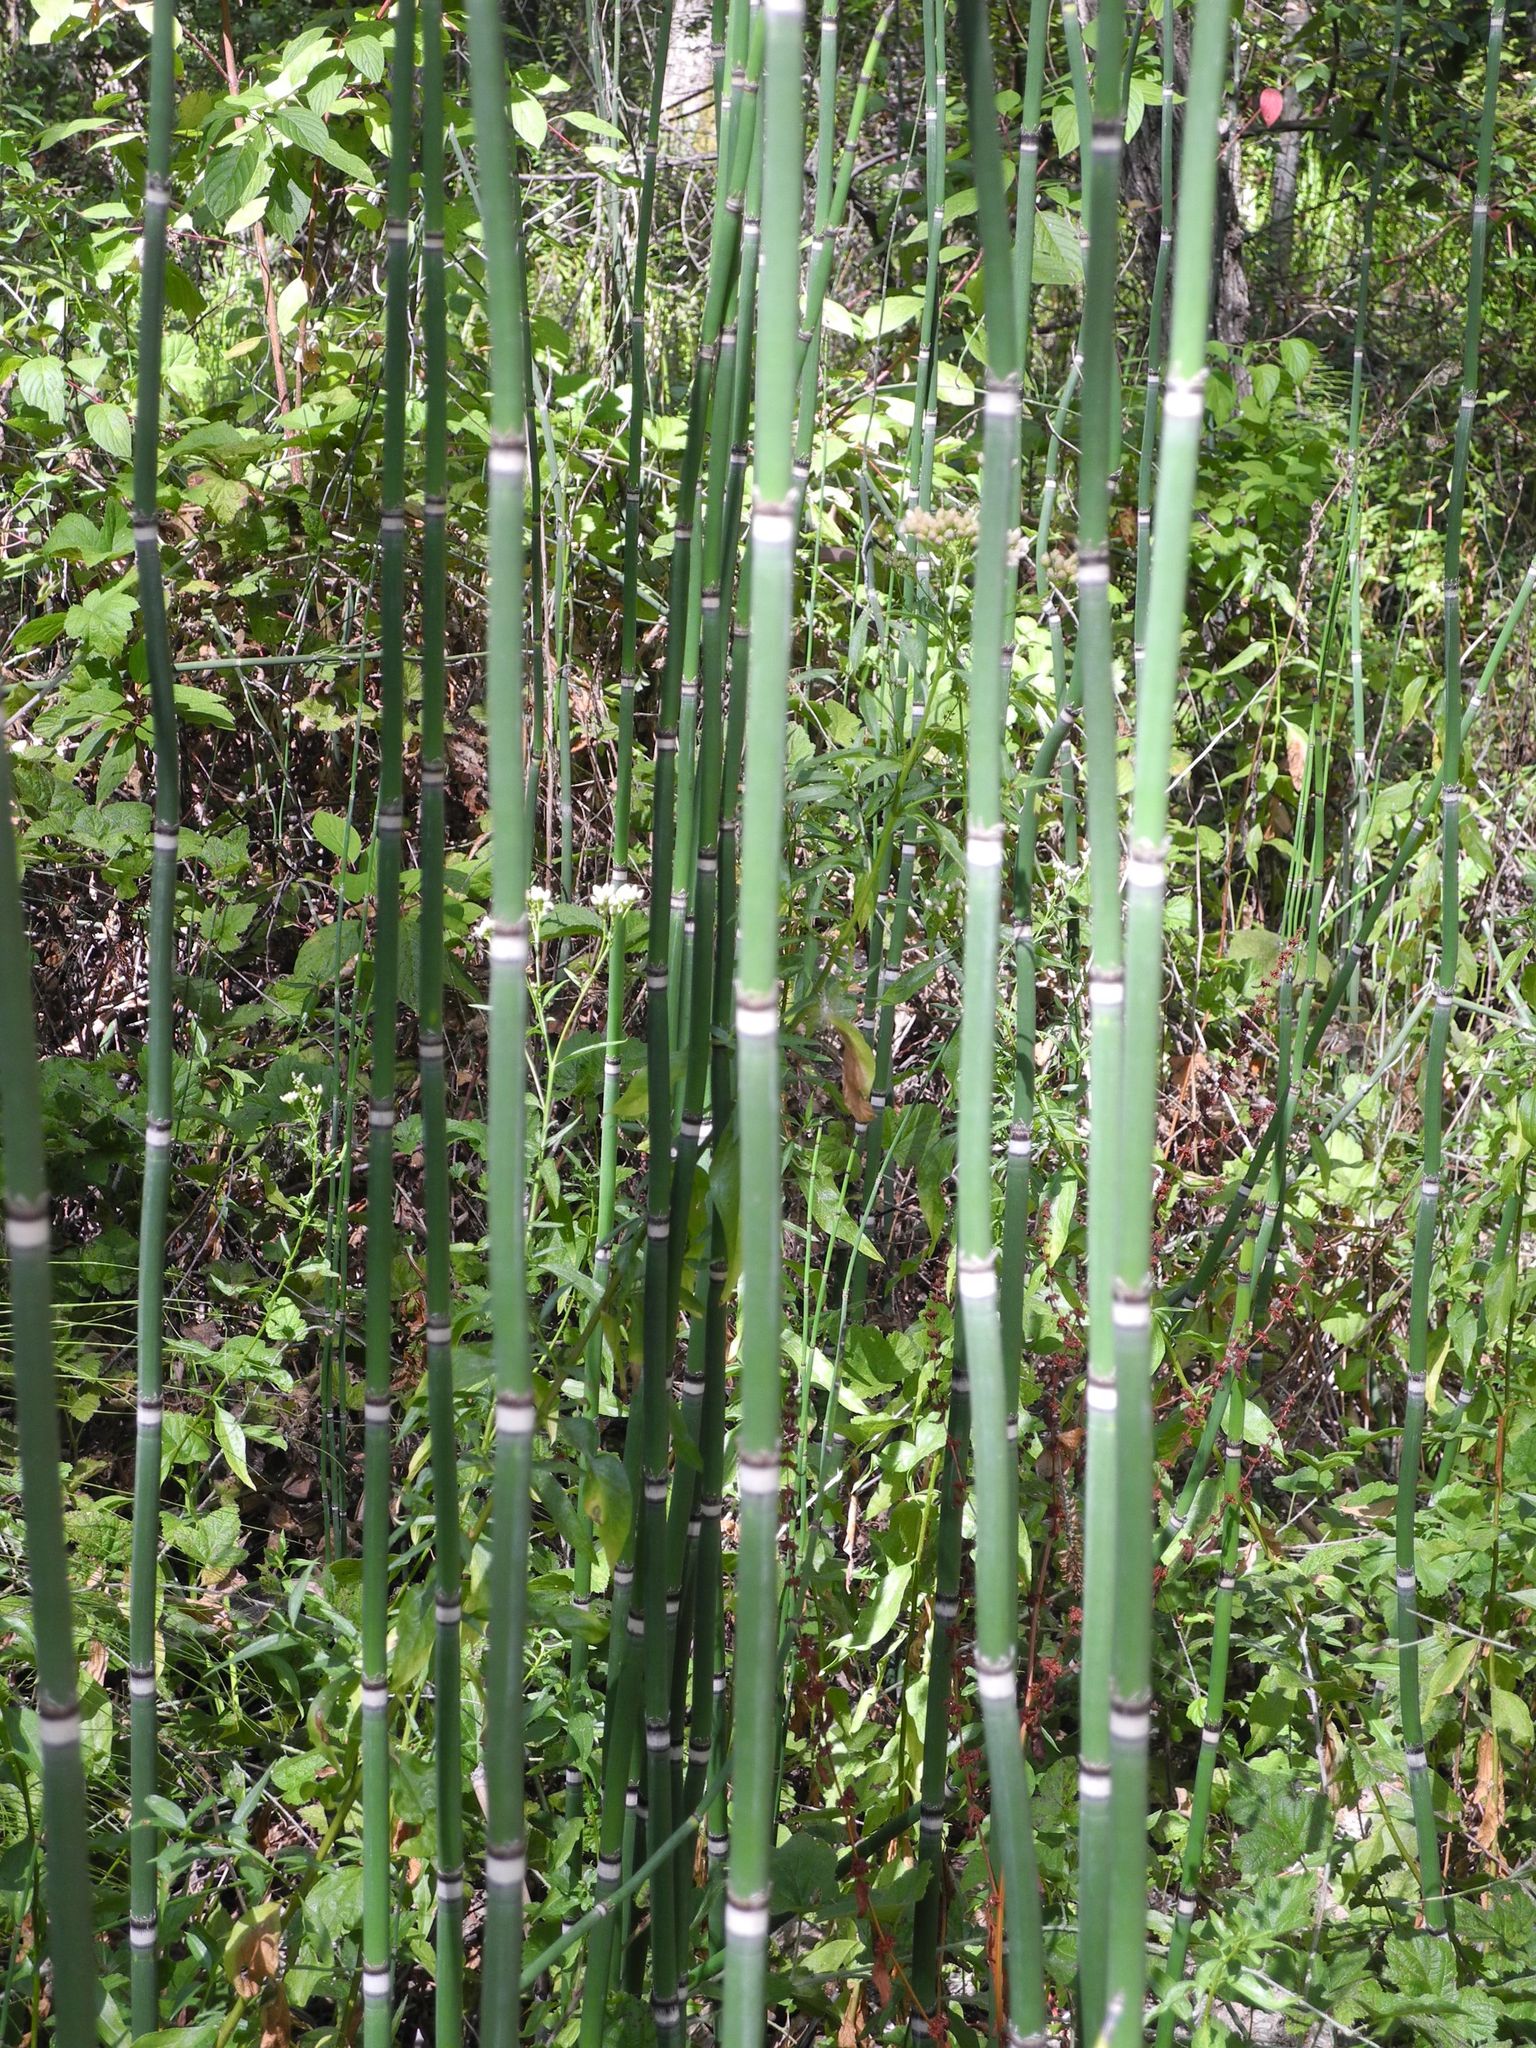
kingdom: Plantae
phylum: Tracheophyta
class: Polypodiopsida
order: Equisetales
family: Equisetaceae
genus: Equisetum
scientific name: Equisetum praealtum
